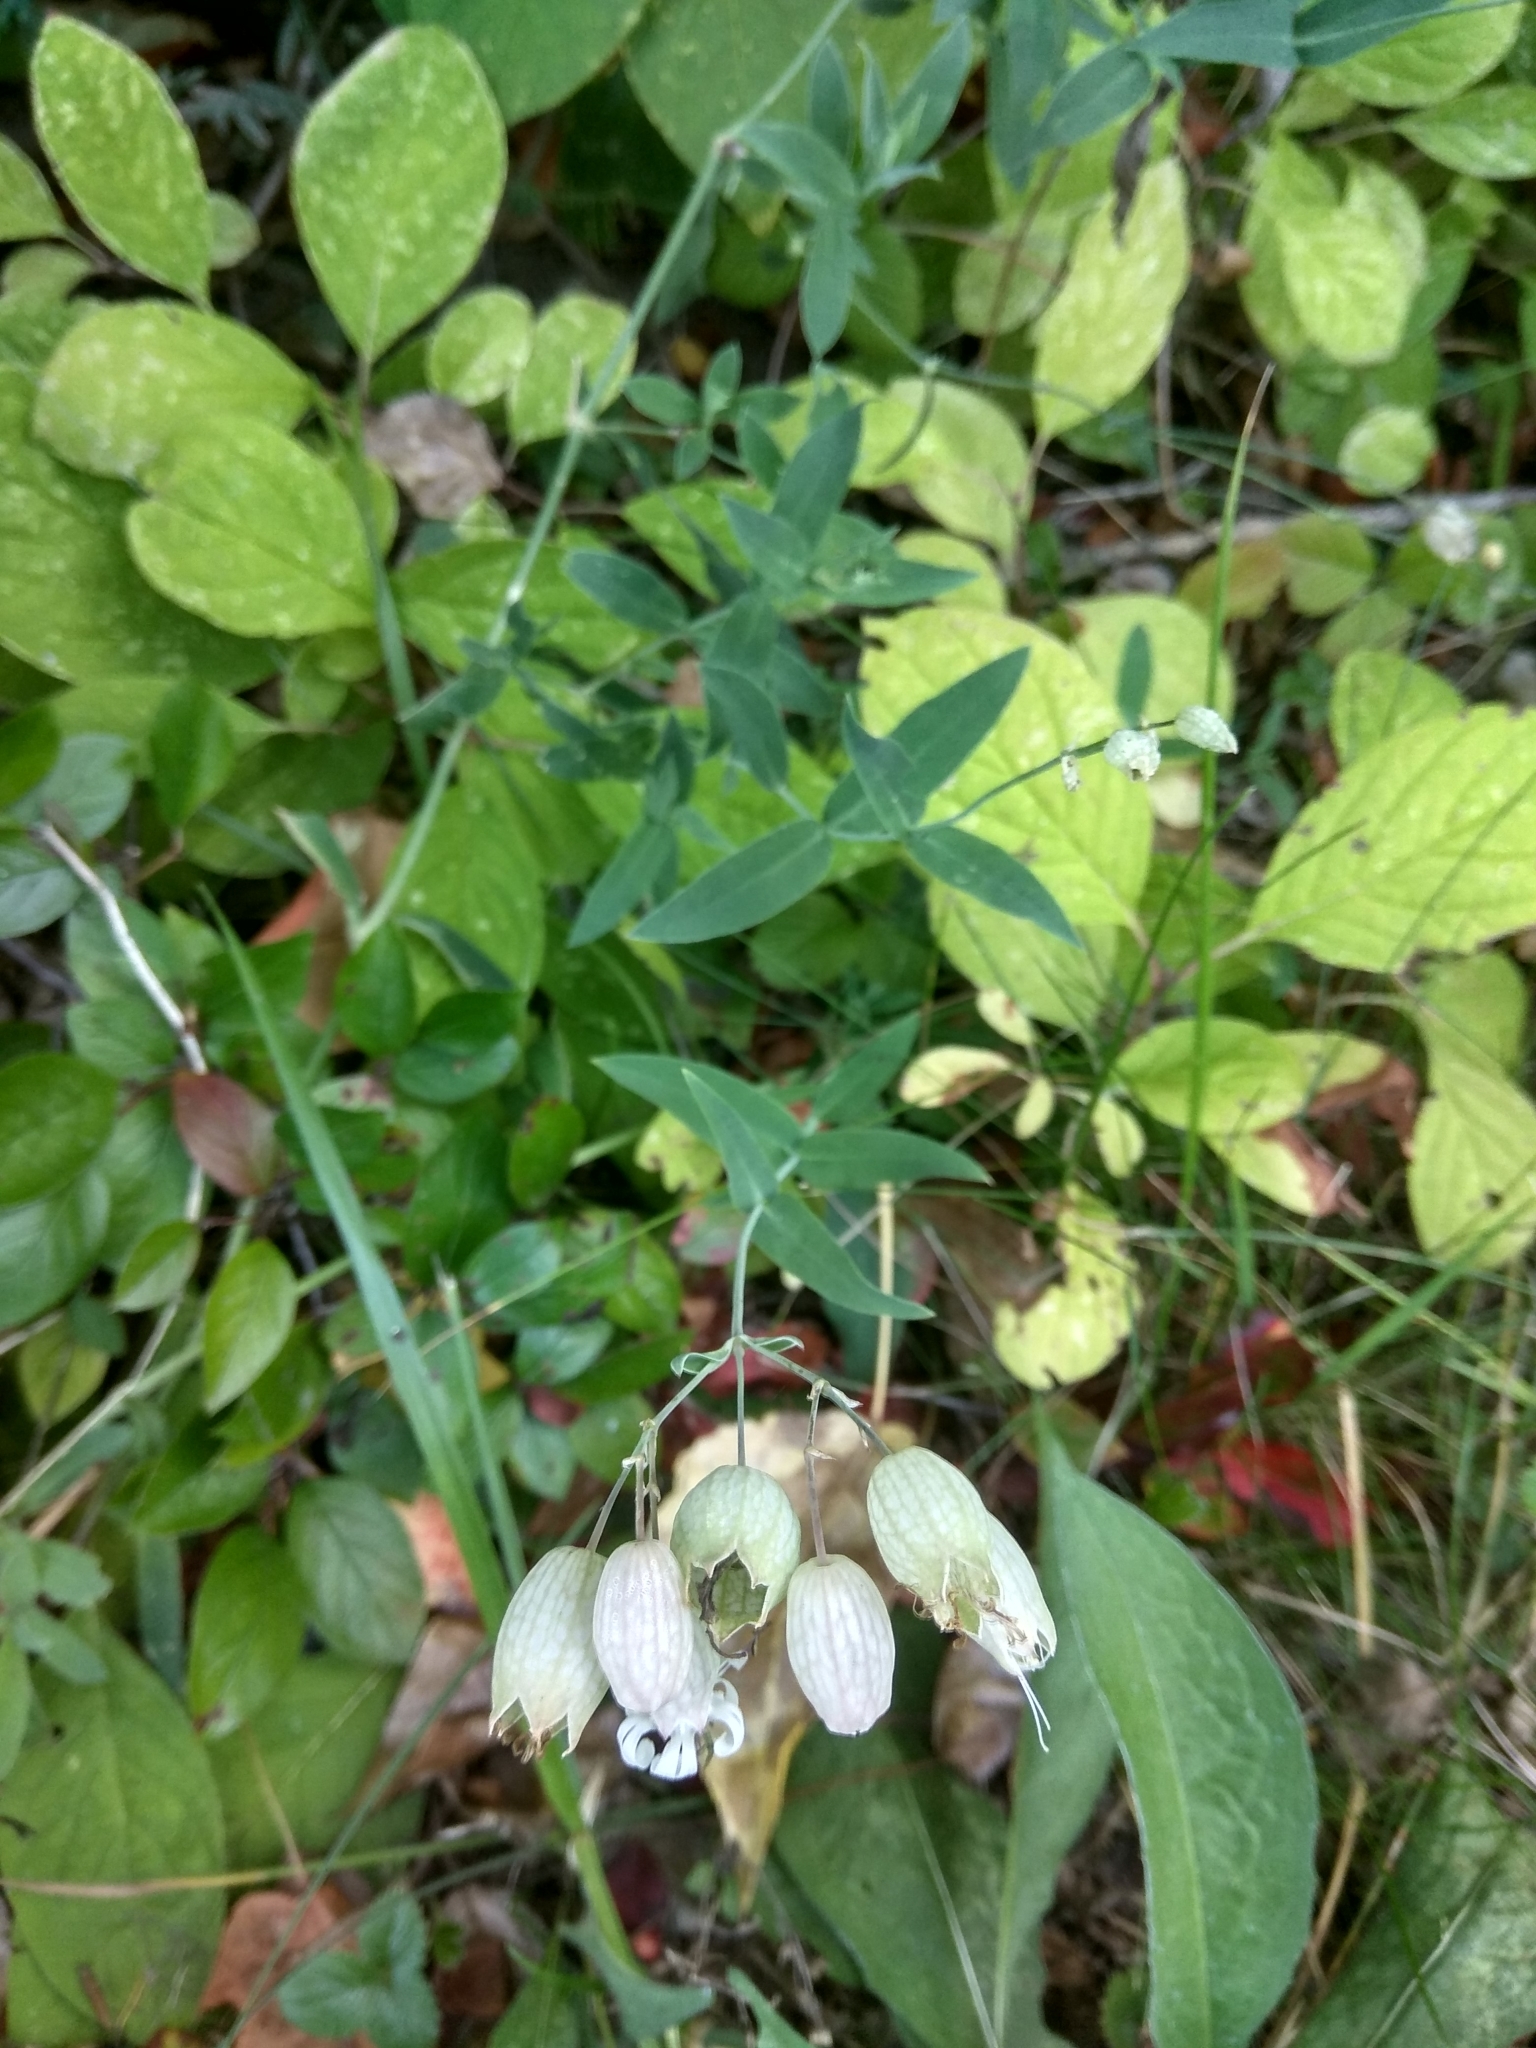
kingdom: Plantae
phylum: Tracheophyta
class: Magnoliopsida
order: Caryophyllales
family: Caryophyllaceae
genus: Silene
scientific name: Silene vulgaris
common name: Bladder campion
